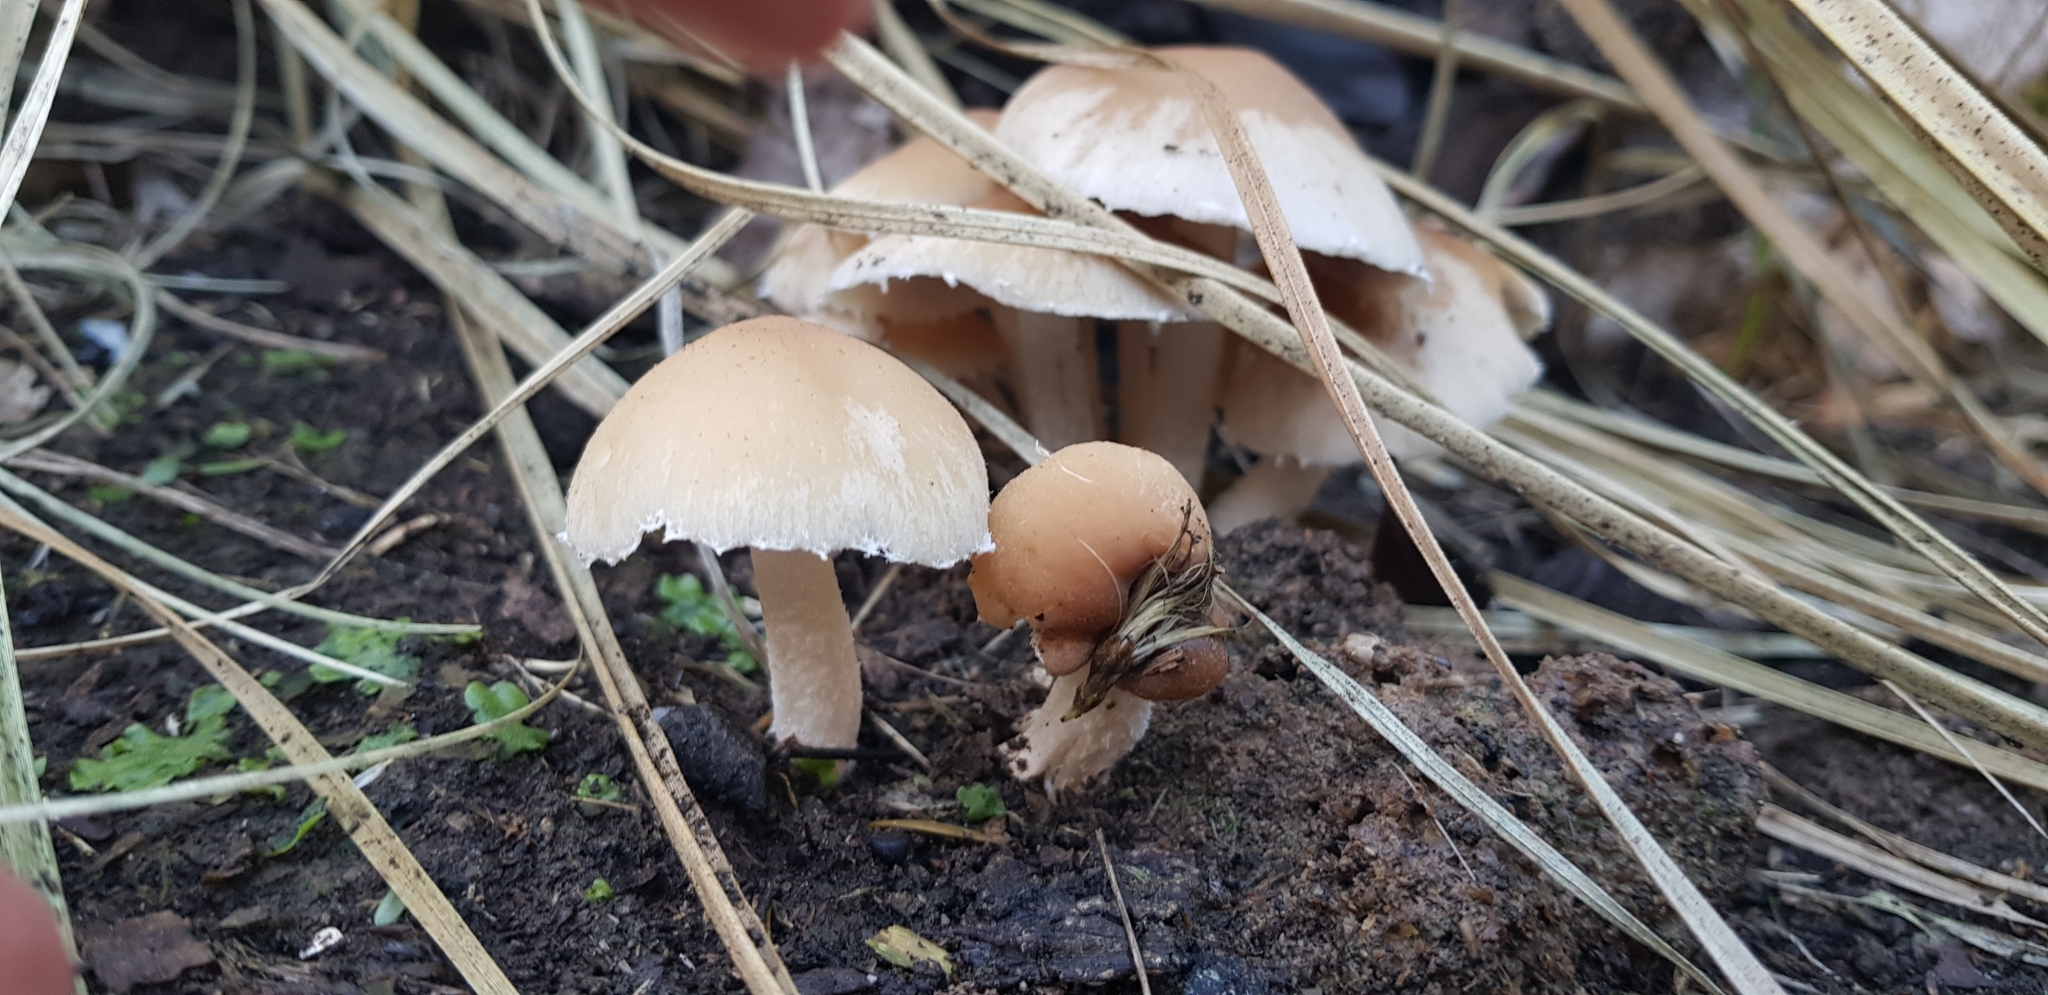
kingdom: Fungi
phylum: Basidiomycota
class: Agaricomycetes
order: Agaricales
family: Psathyrellaceae
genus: Candolleomyces
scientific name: Candolleomyces candolleanus
